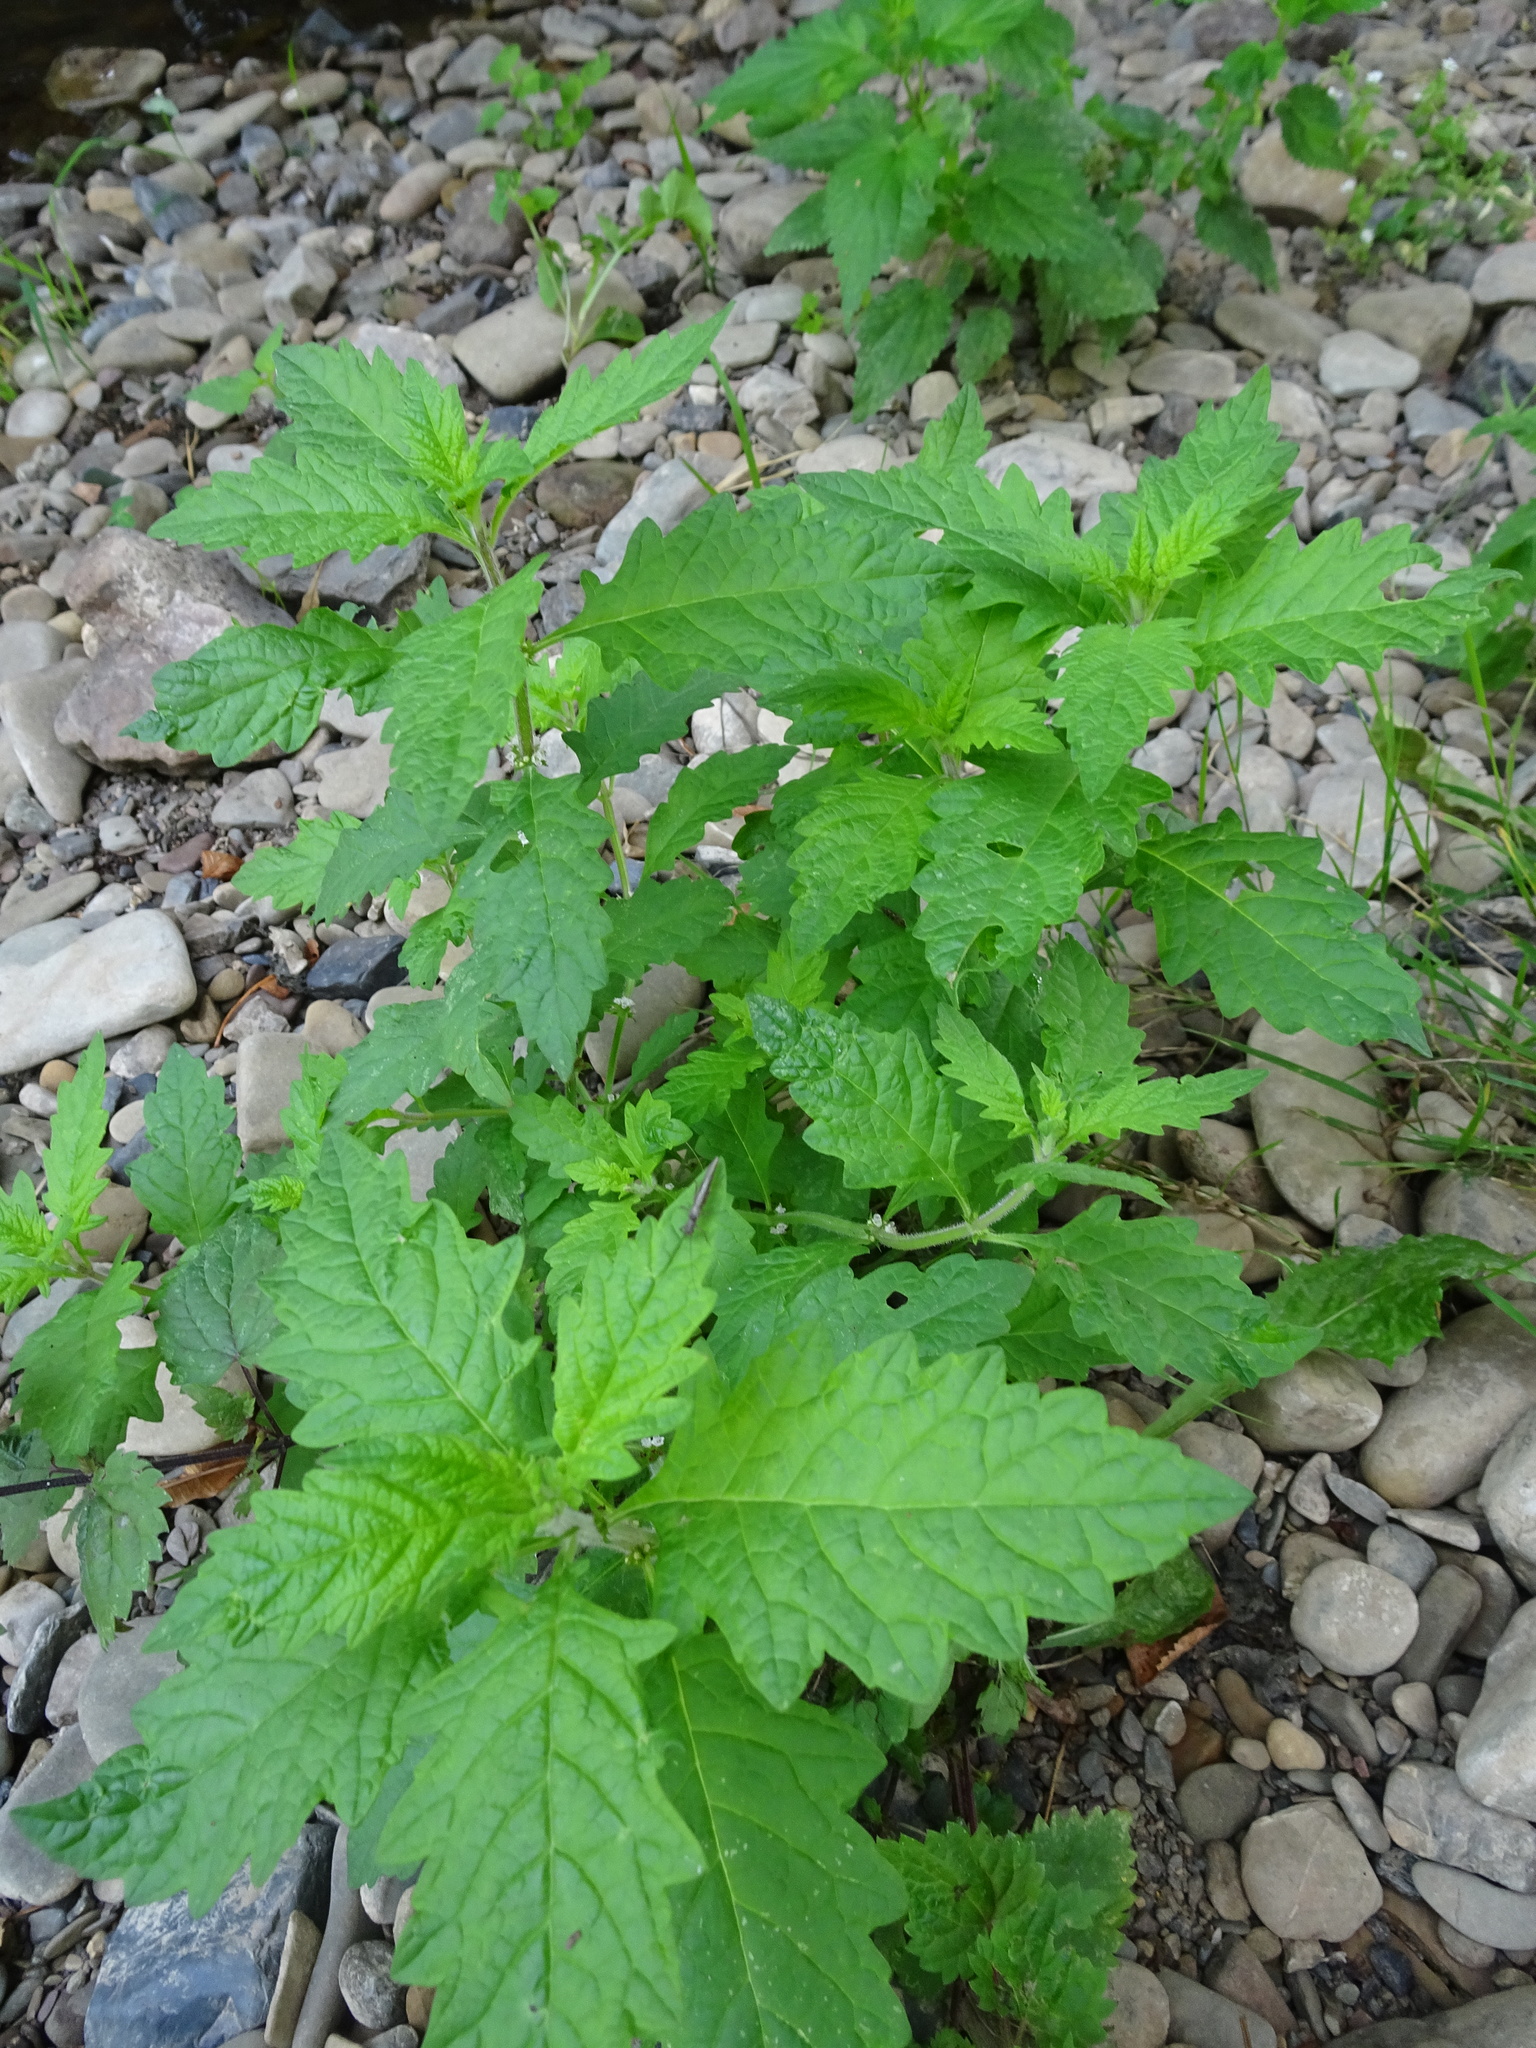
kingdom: Plantae
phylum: Tracheophyta
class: Magnoliopsida
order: Lamiales
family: Lamiaceae
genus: Lycopus
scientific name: Lycopus europaeus
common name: European bugleweed
